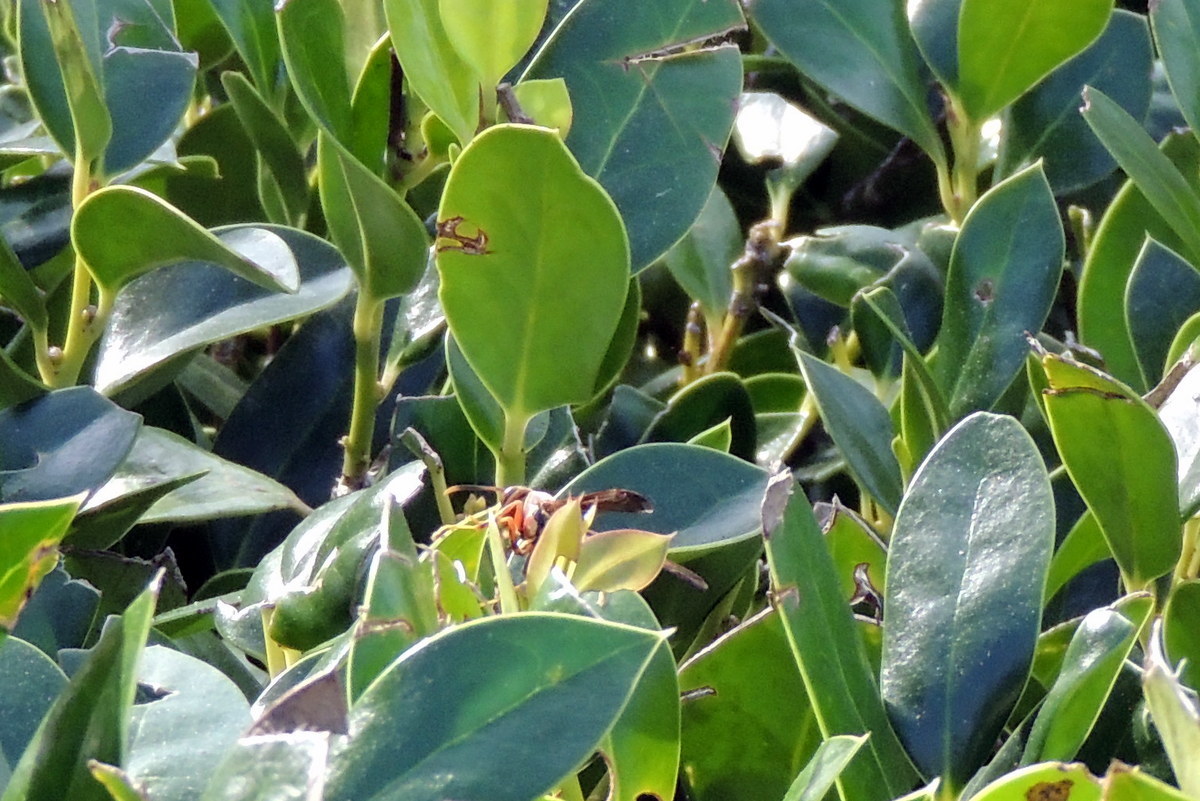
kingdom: Animalia
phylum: Arthropoda
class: Insecta
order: Hymenoptera
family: Eumenidae
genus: Polistes
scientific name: Polistes exclamans
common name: Paper wasp
